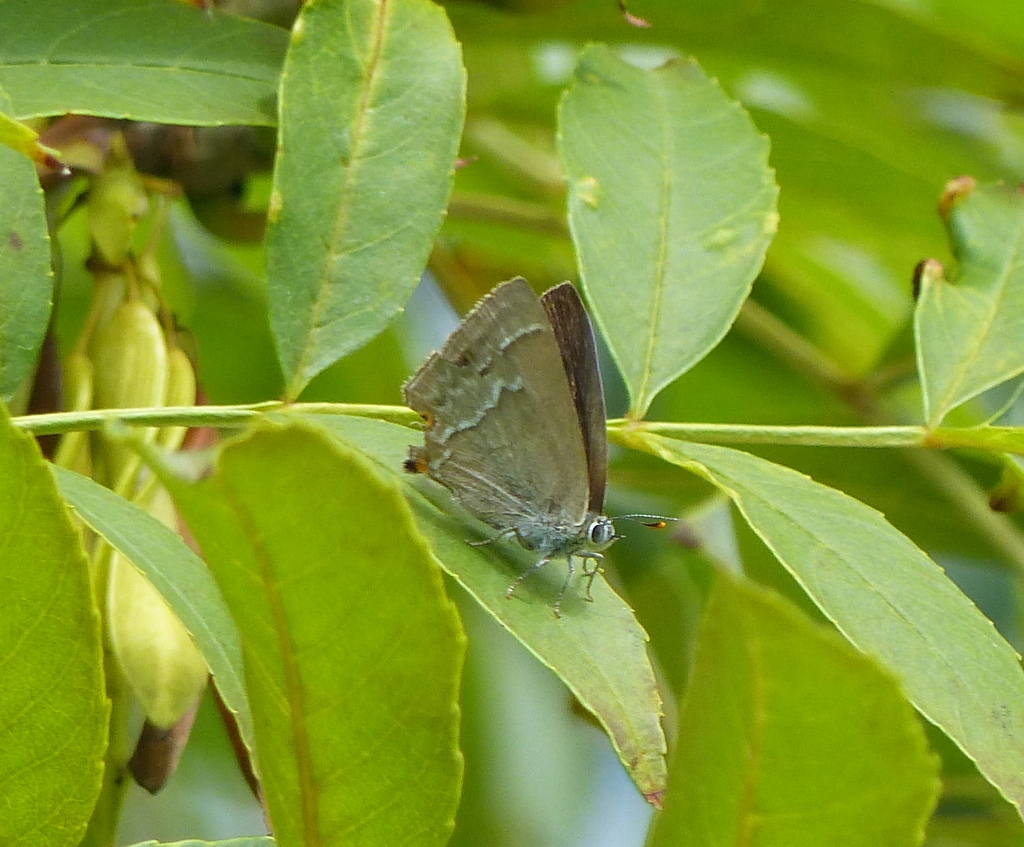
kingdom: Animalia
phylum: Arthropoda
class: Insecta
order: Lepidoptera
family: Lycaenidae
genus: Quercusia
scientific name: Quercusia quercus
